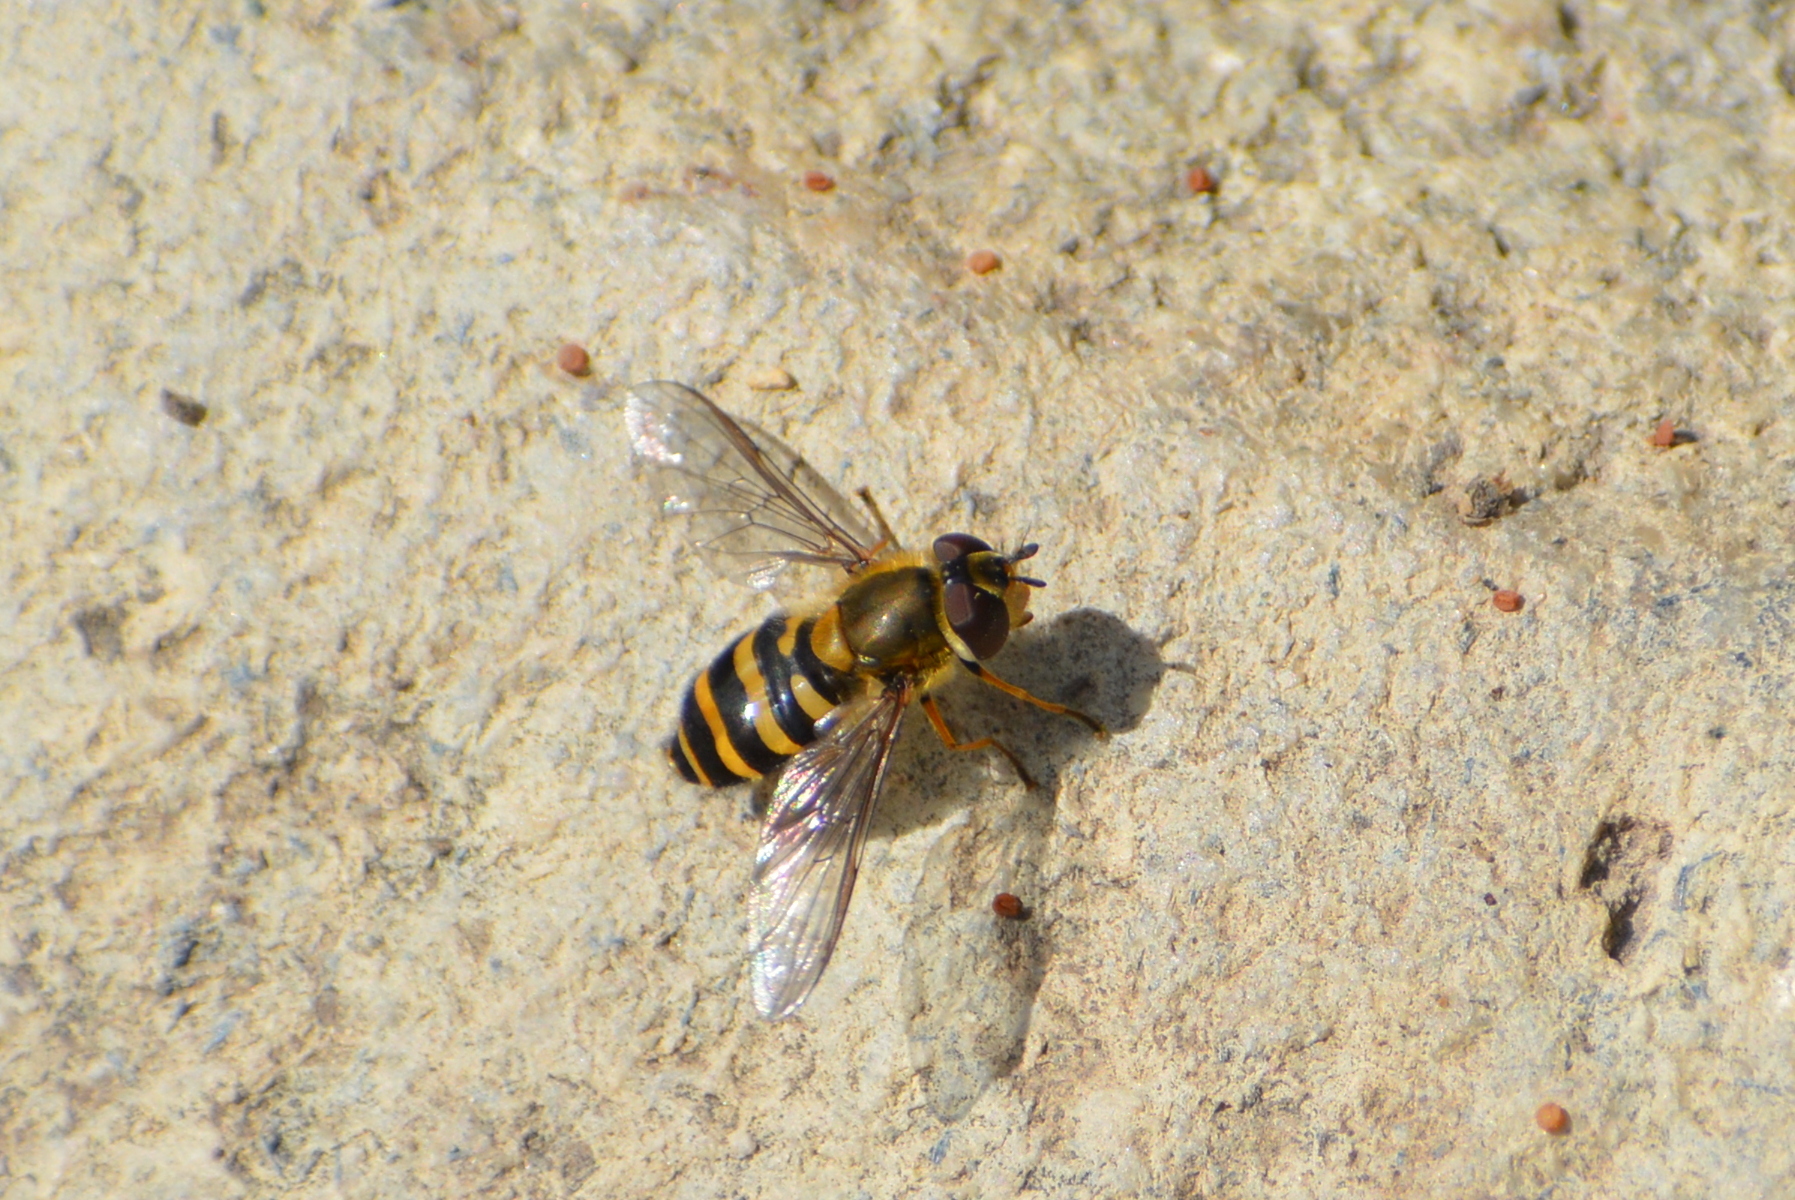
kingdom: Animalia
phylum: Arthropoda
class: Insecta
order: Diptera
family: Syrphidae
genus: Syrphus
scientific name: Syrphus
